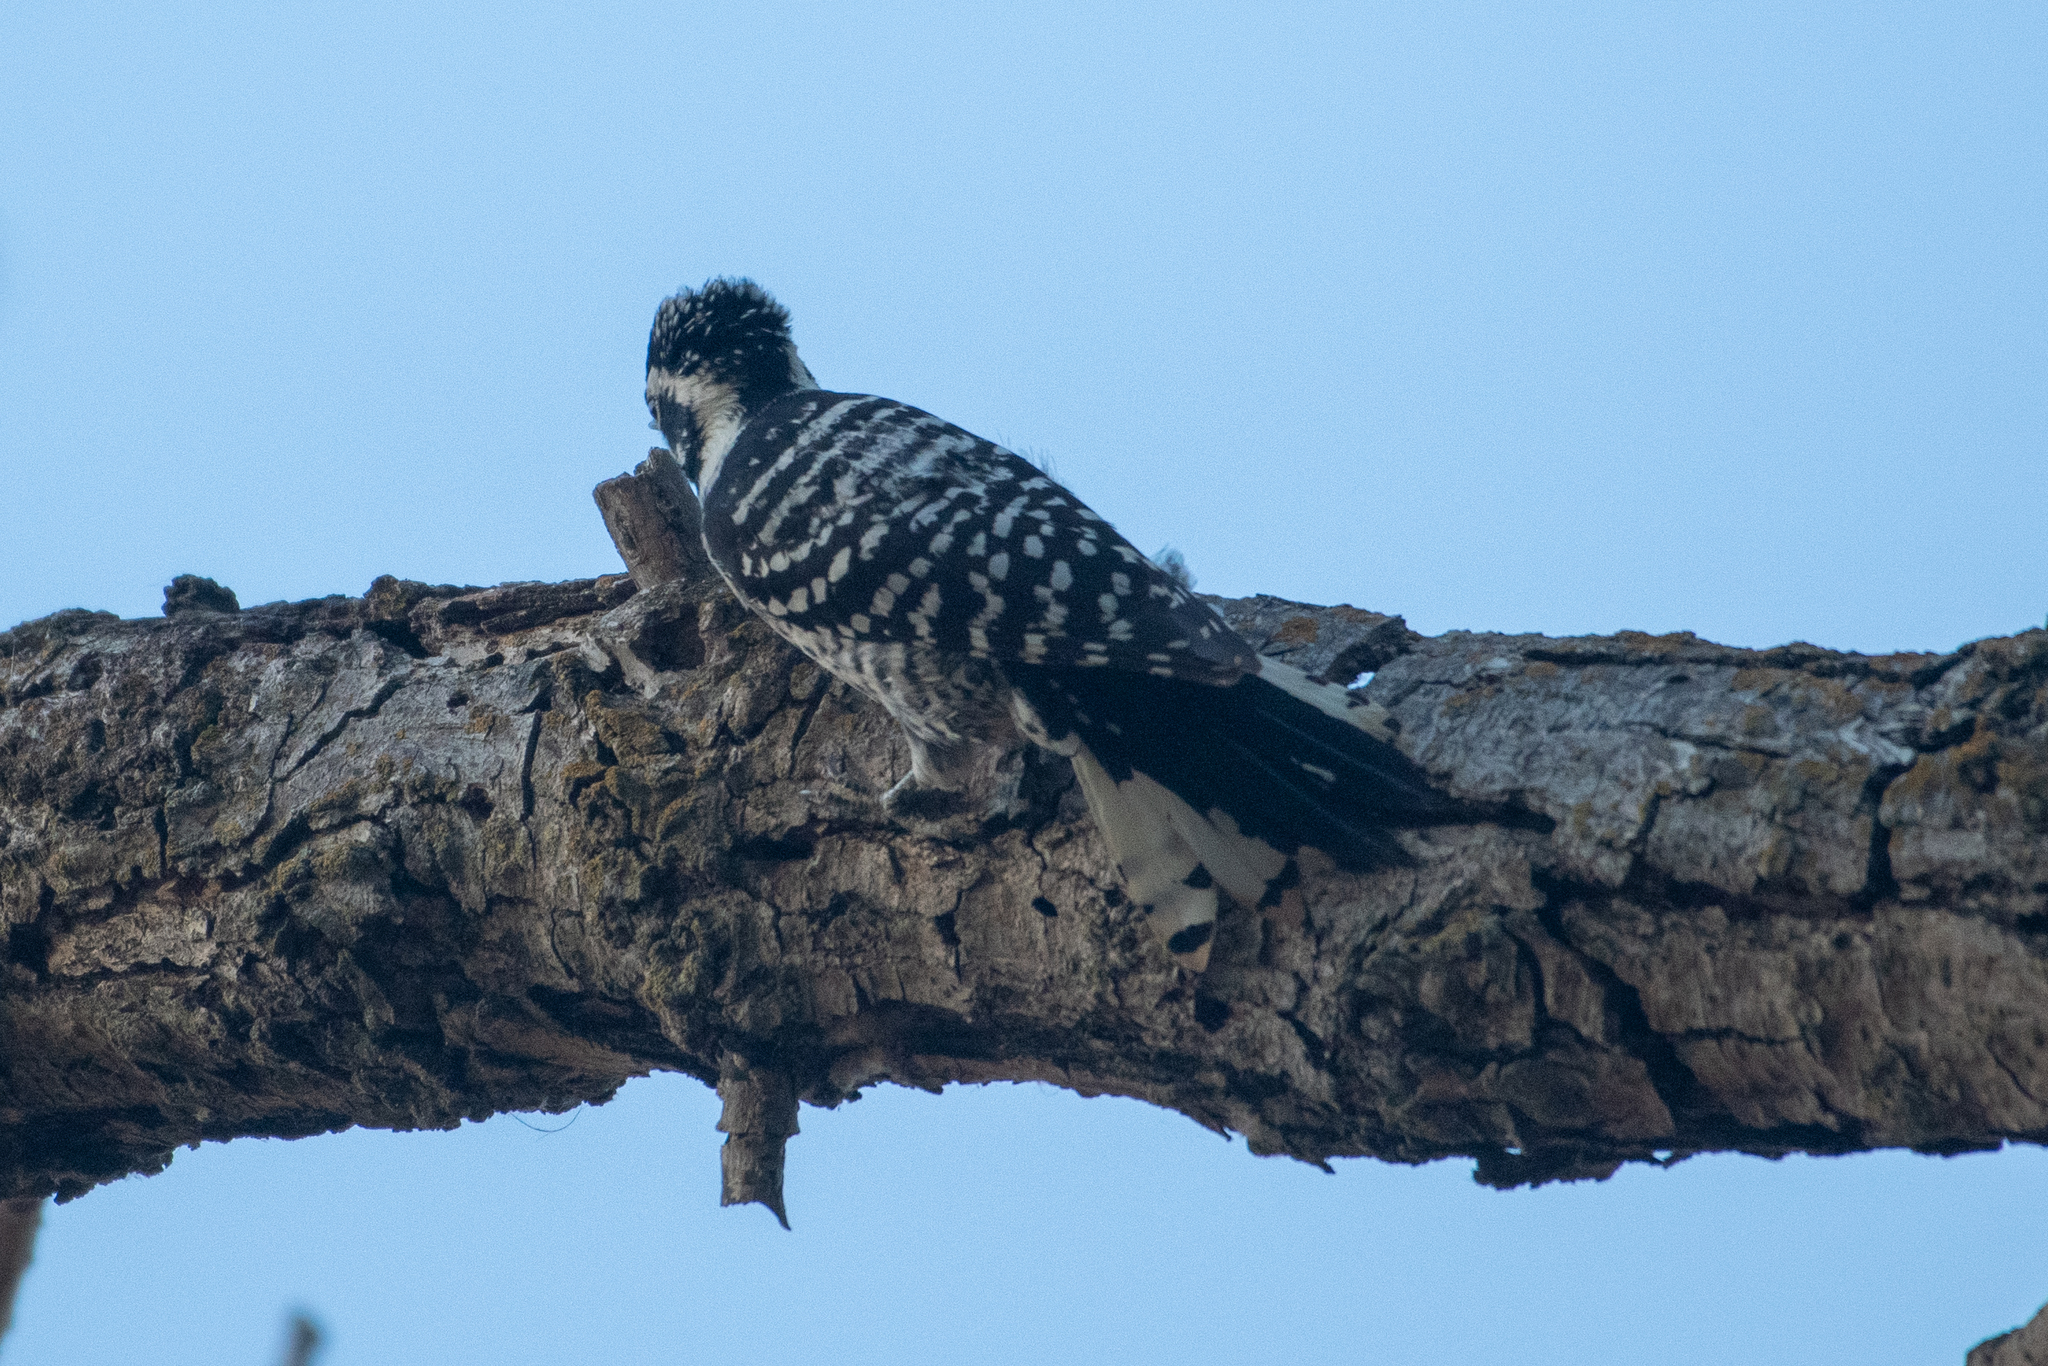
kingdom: Animalia
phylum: Chordata
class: Aves
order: Piciformes
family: Picidae
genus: Dryobates
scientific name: Dryobates nuttallii
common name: Nuttall's woodpecker
